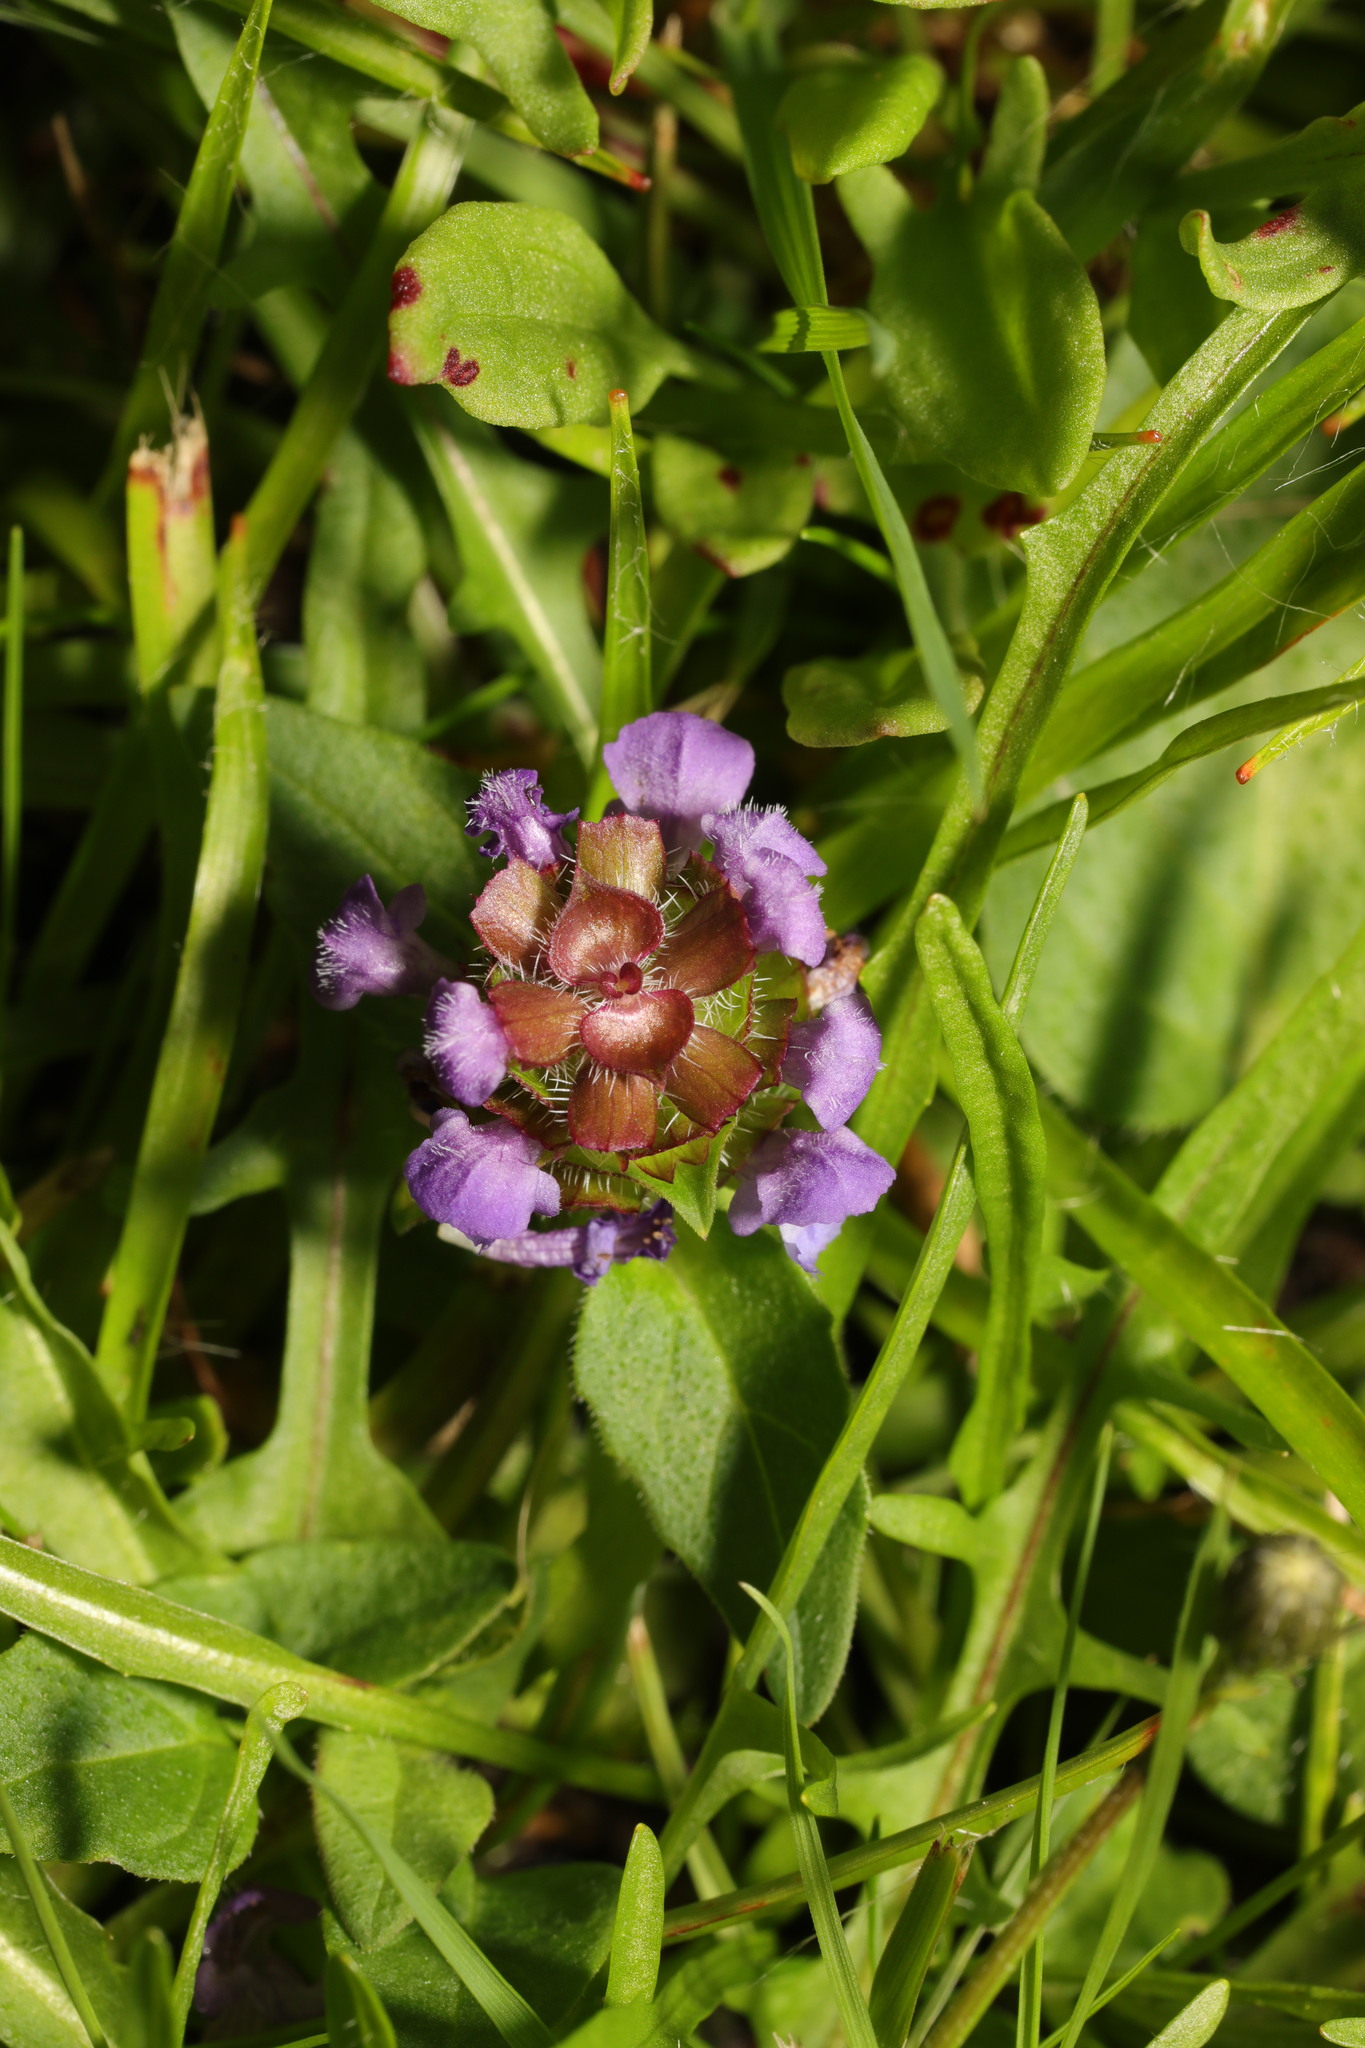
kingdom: Plantae
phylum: Tracheophyta
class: Magnoliopsida
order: Lamiales
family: Lamiaceae
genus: Prunella
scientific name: Prunella vulgaris
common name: Heal-all
